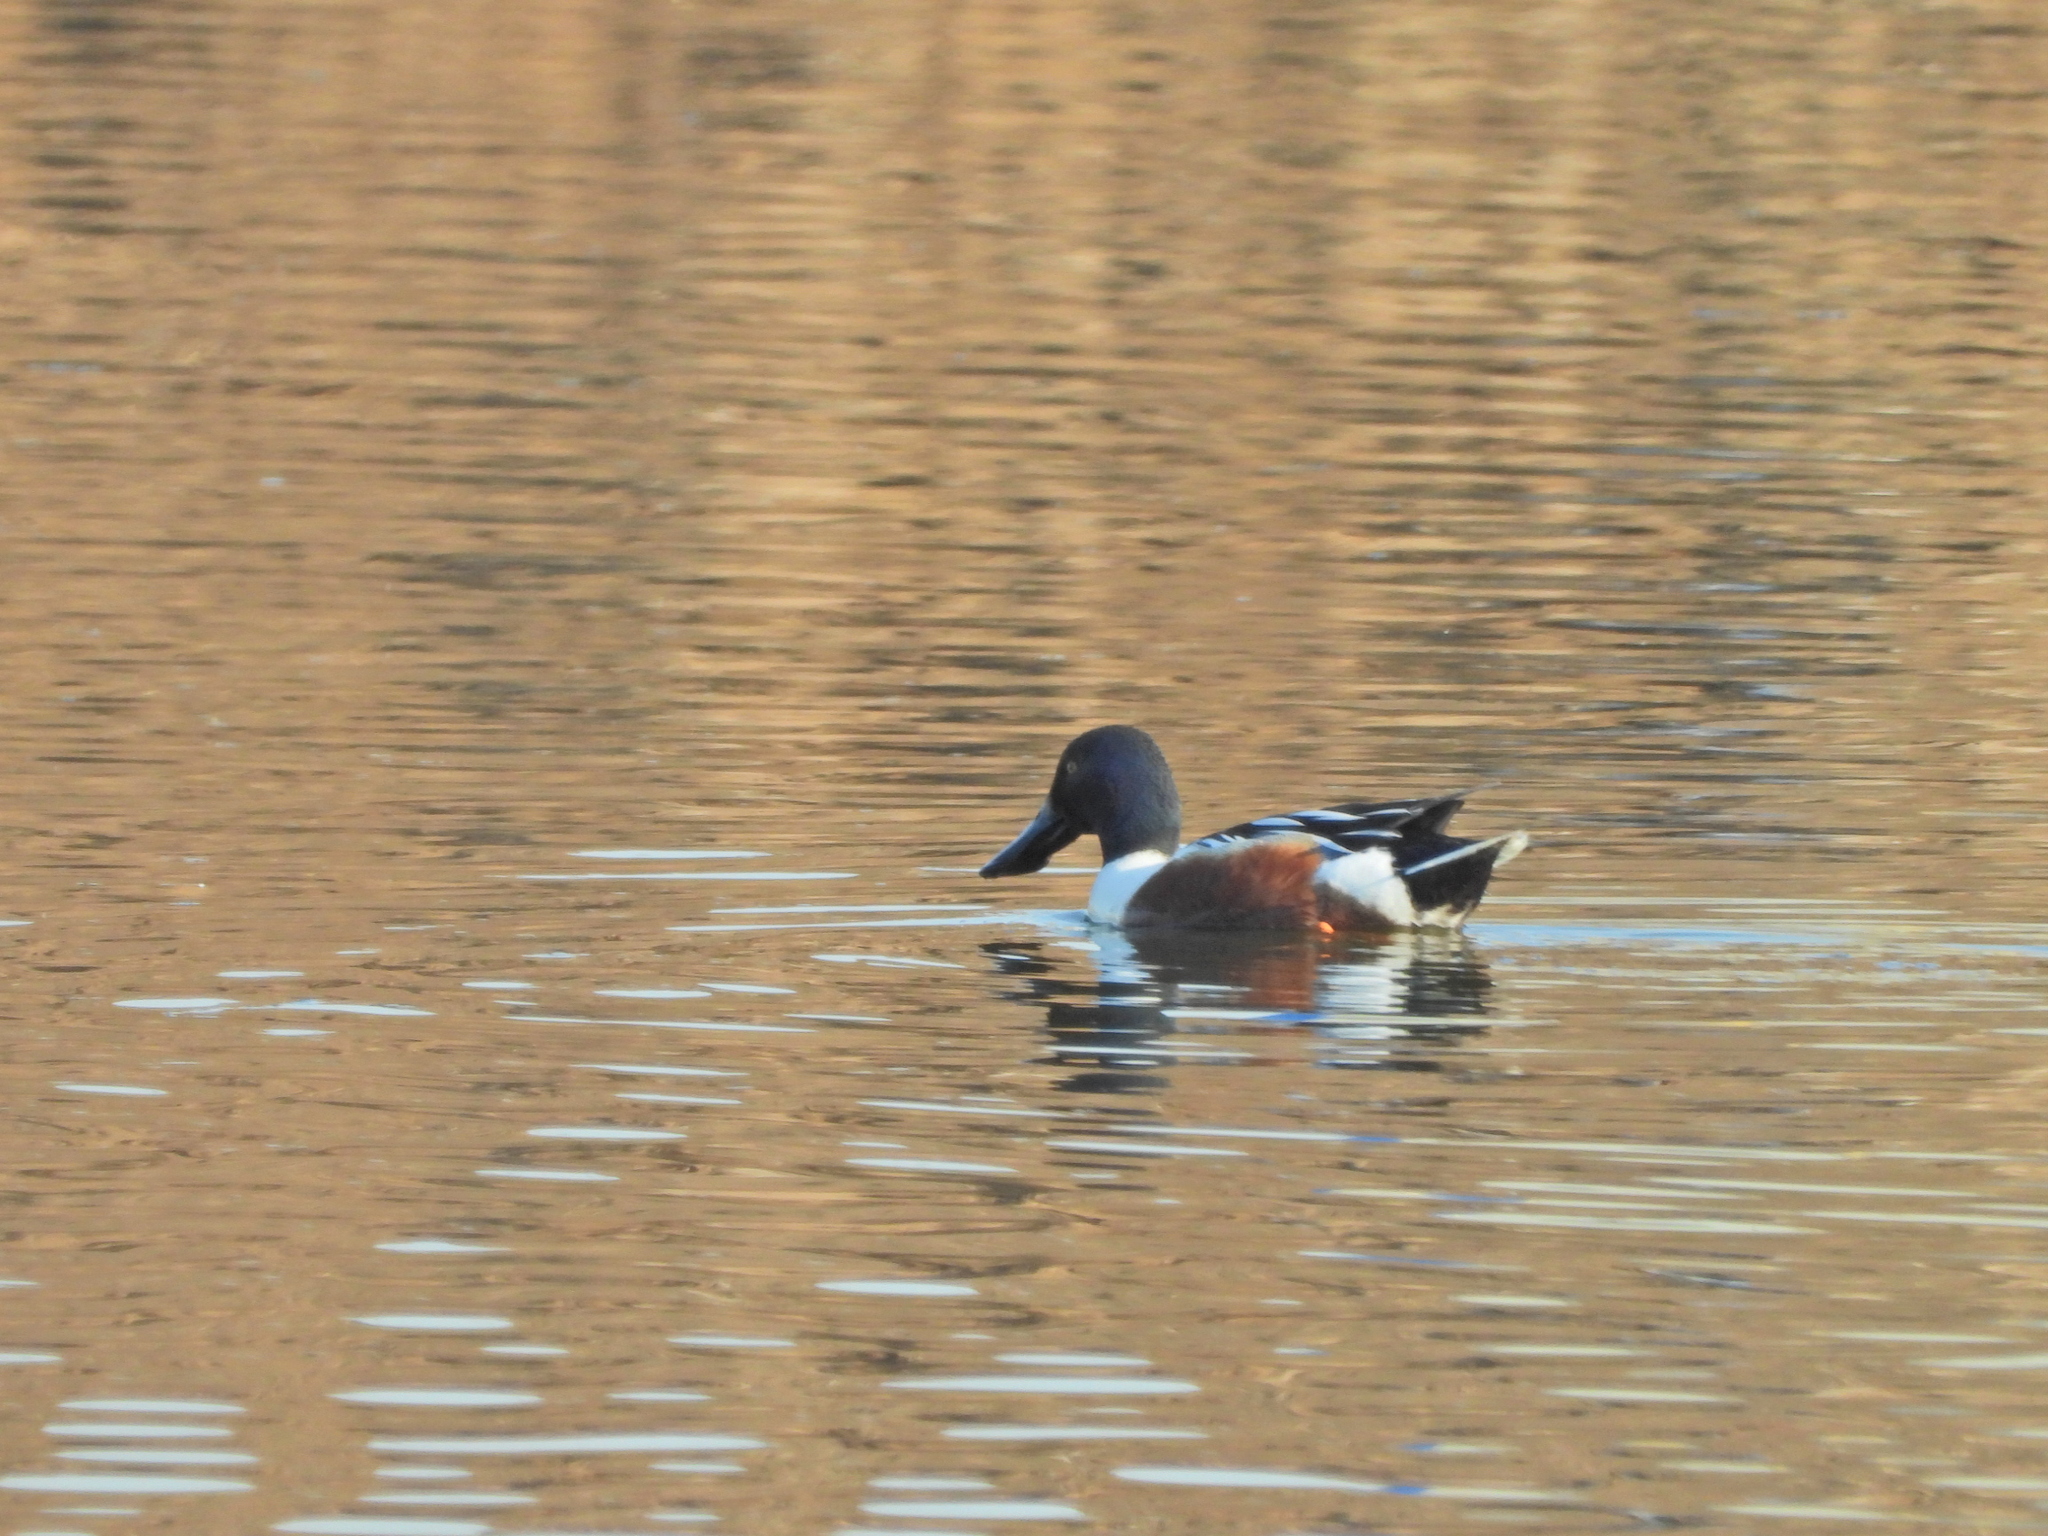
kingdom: Animalia
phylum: Chordata
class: Aves
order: Anseriformes
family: Anatidae
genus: Spatula
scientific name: Spatula clypeata
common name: Northern shoveler
